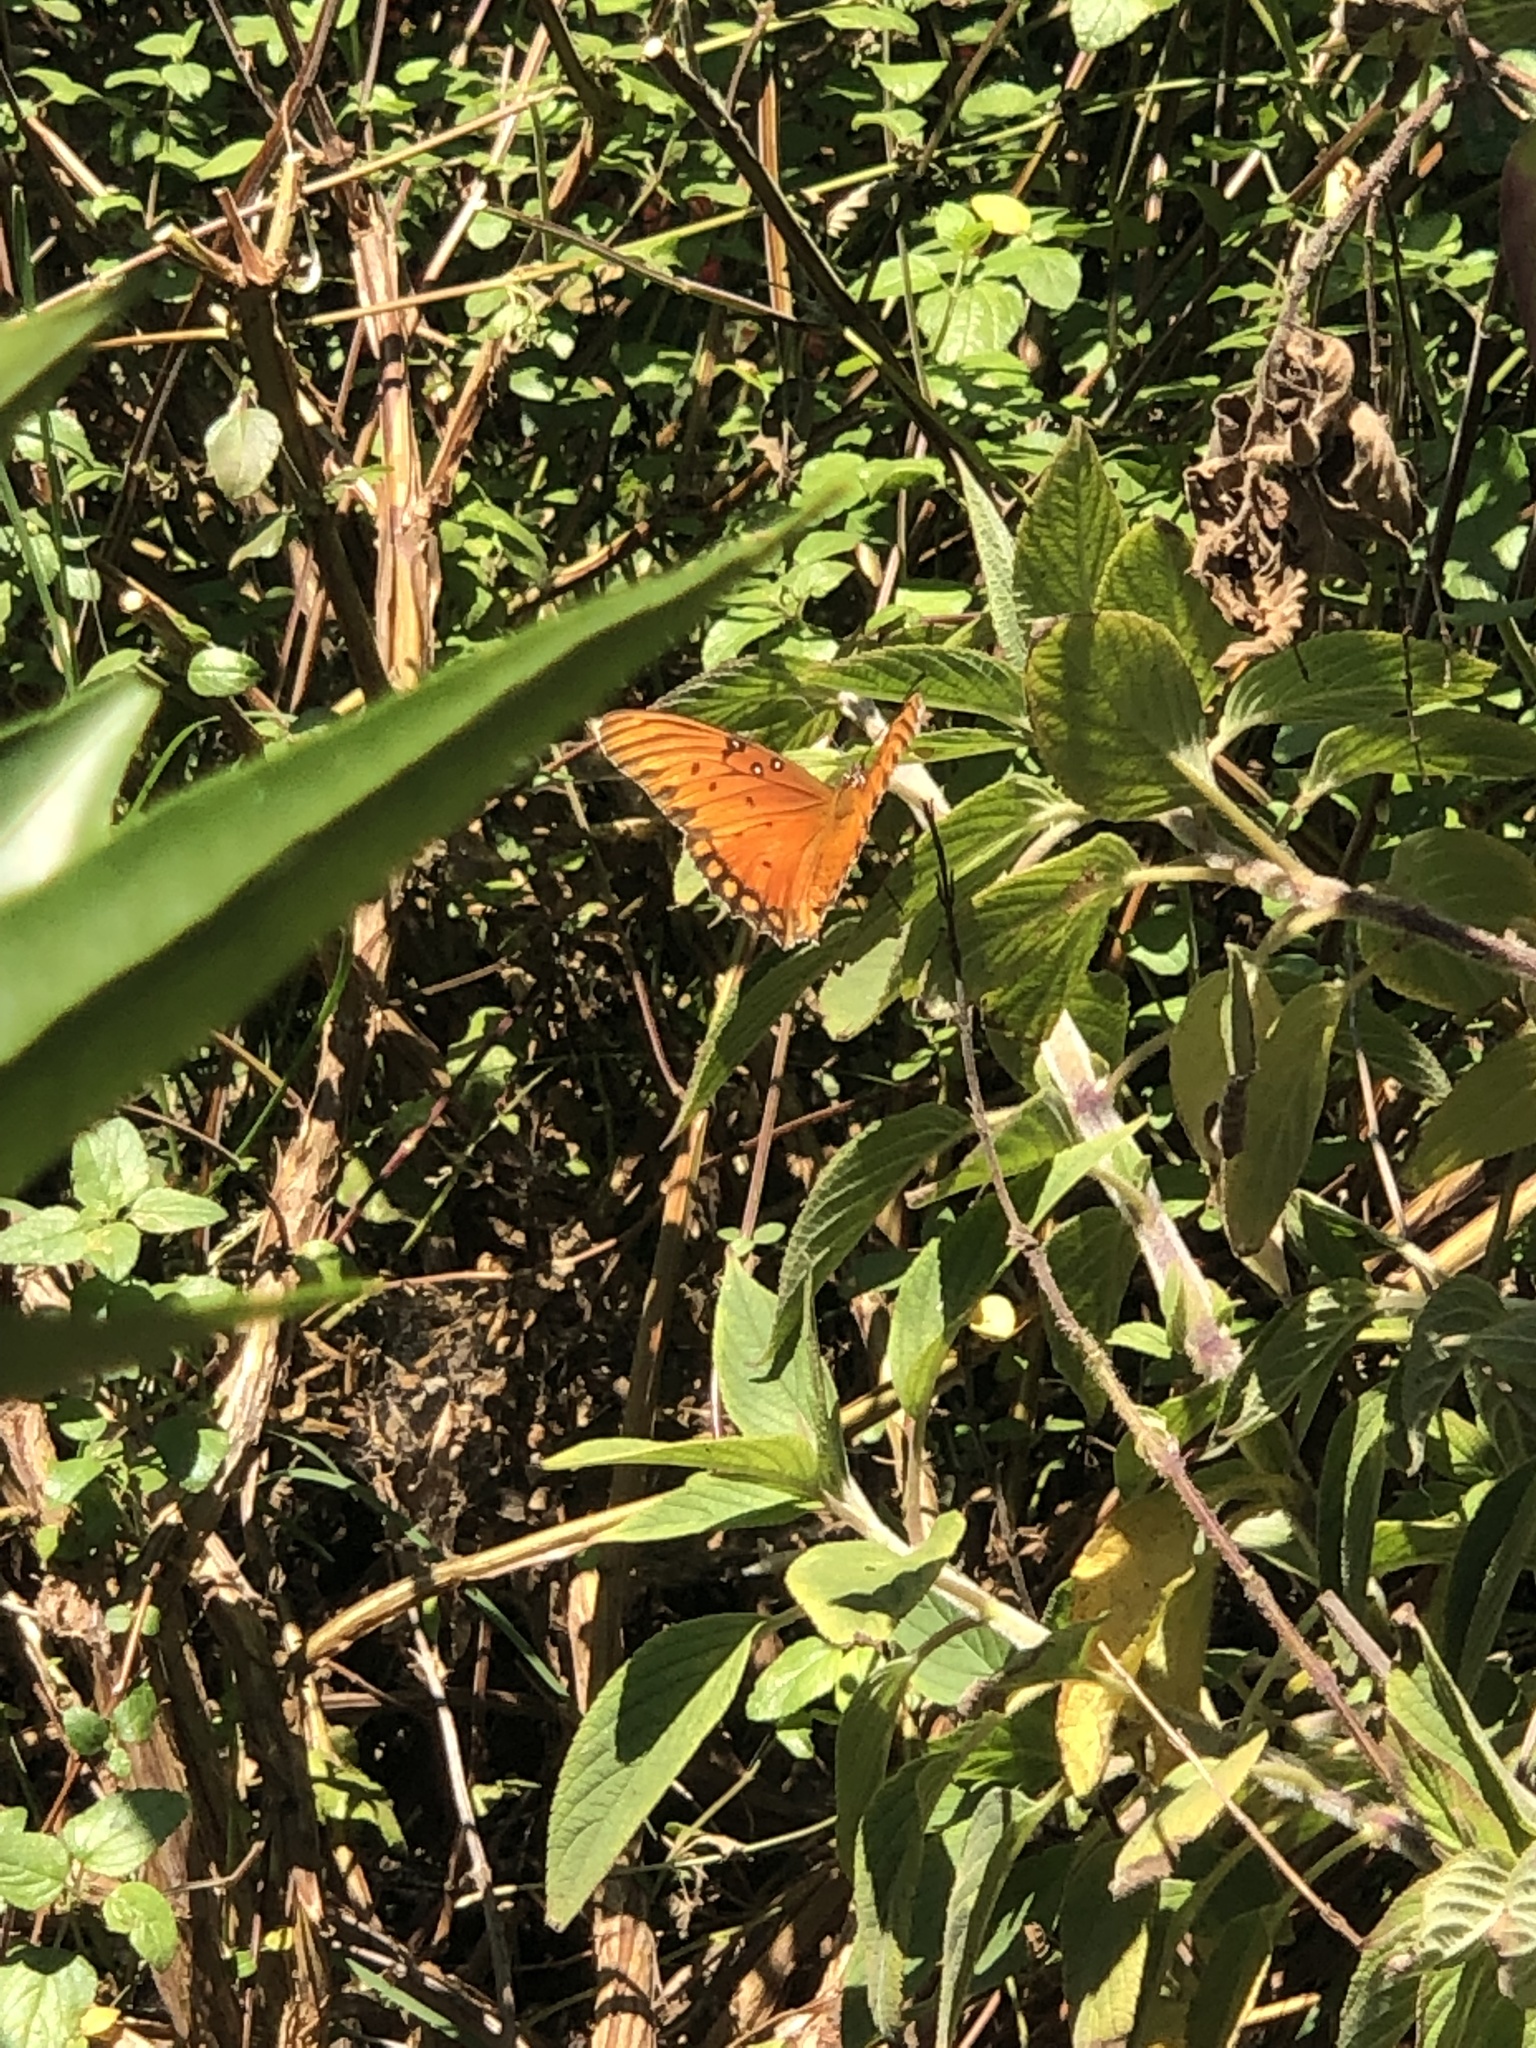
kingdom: Animalia
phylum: Arthropoda
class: Insecta
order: Lepidoptera
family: Nymphalidae
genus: Dione
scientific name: Dione vanillae
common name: Gulf fritillary
